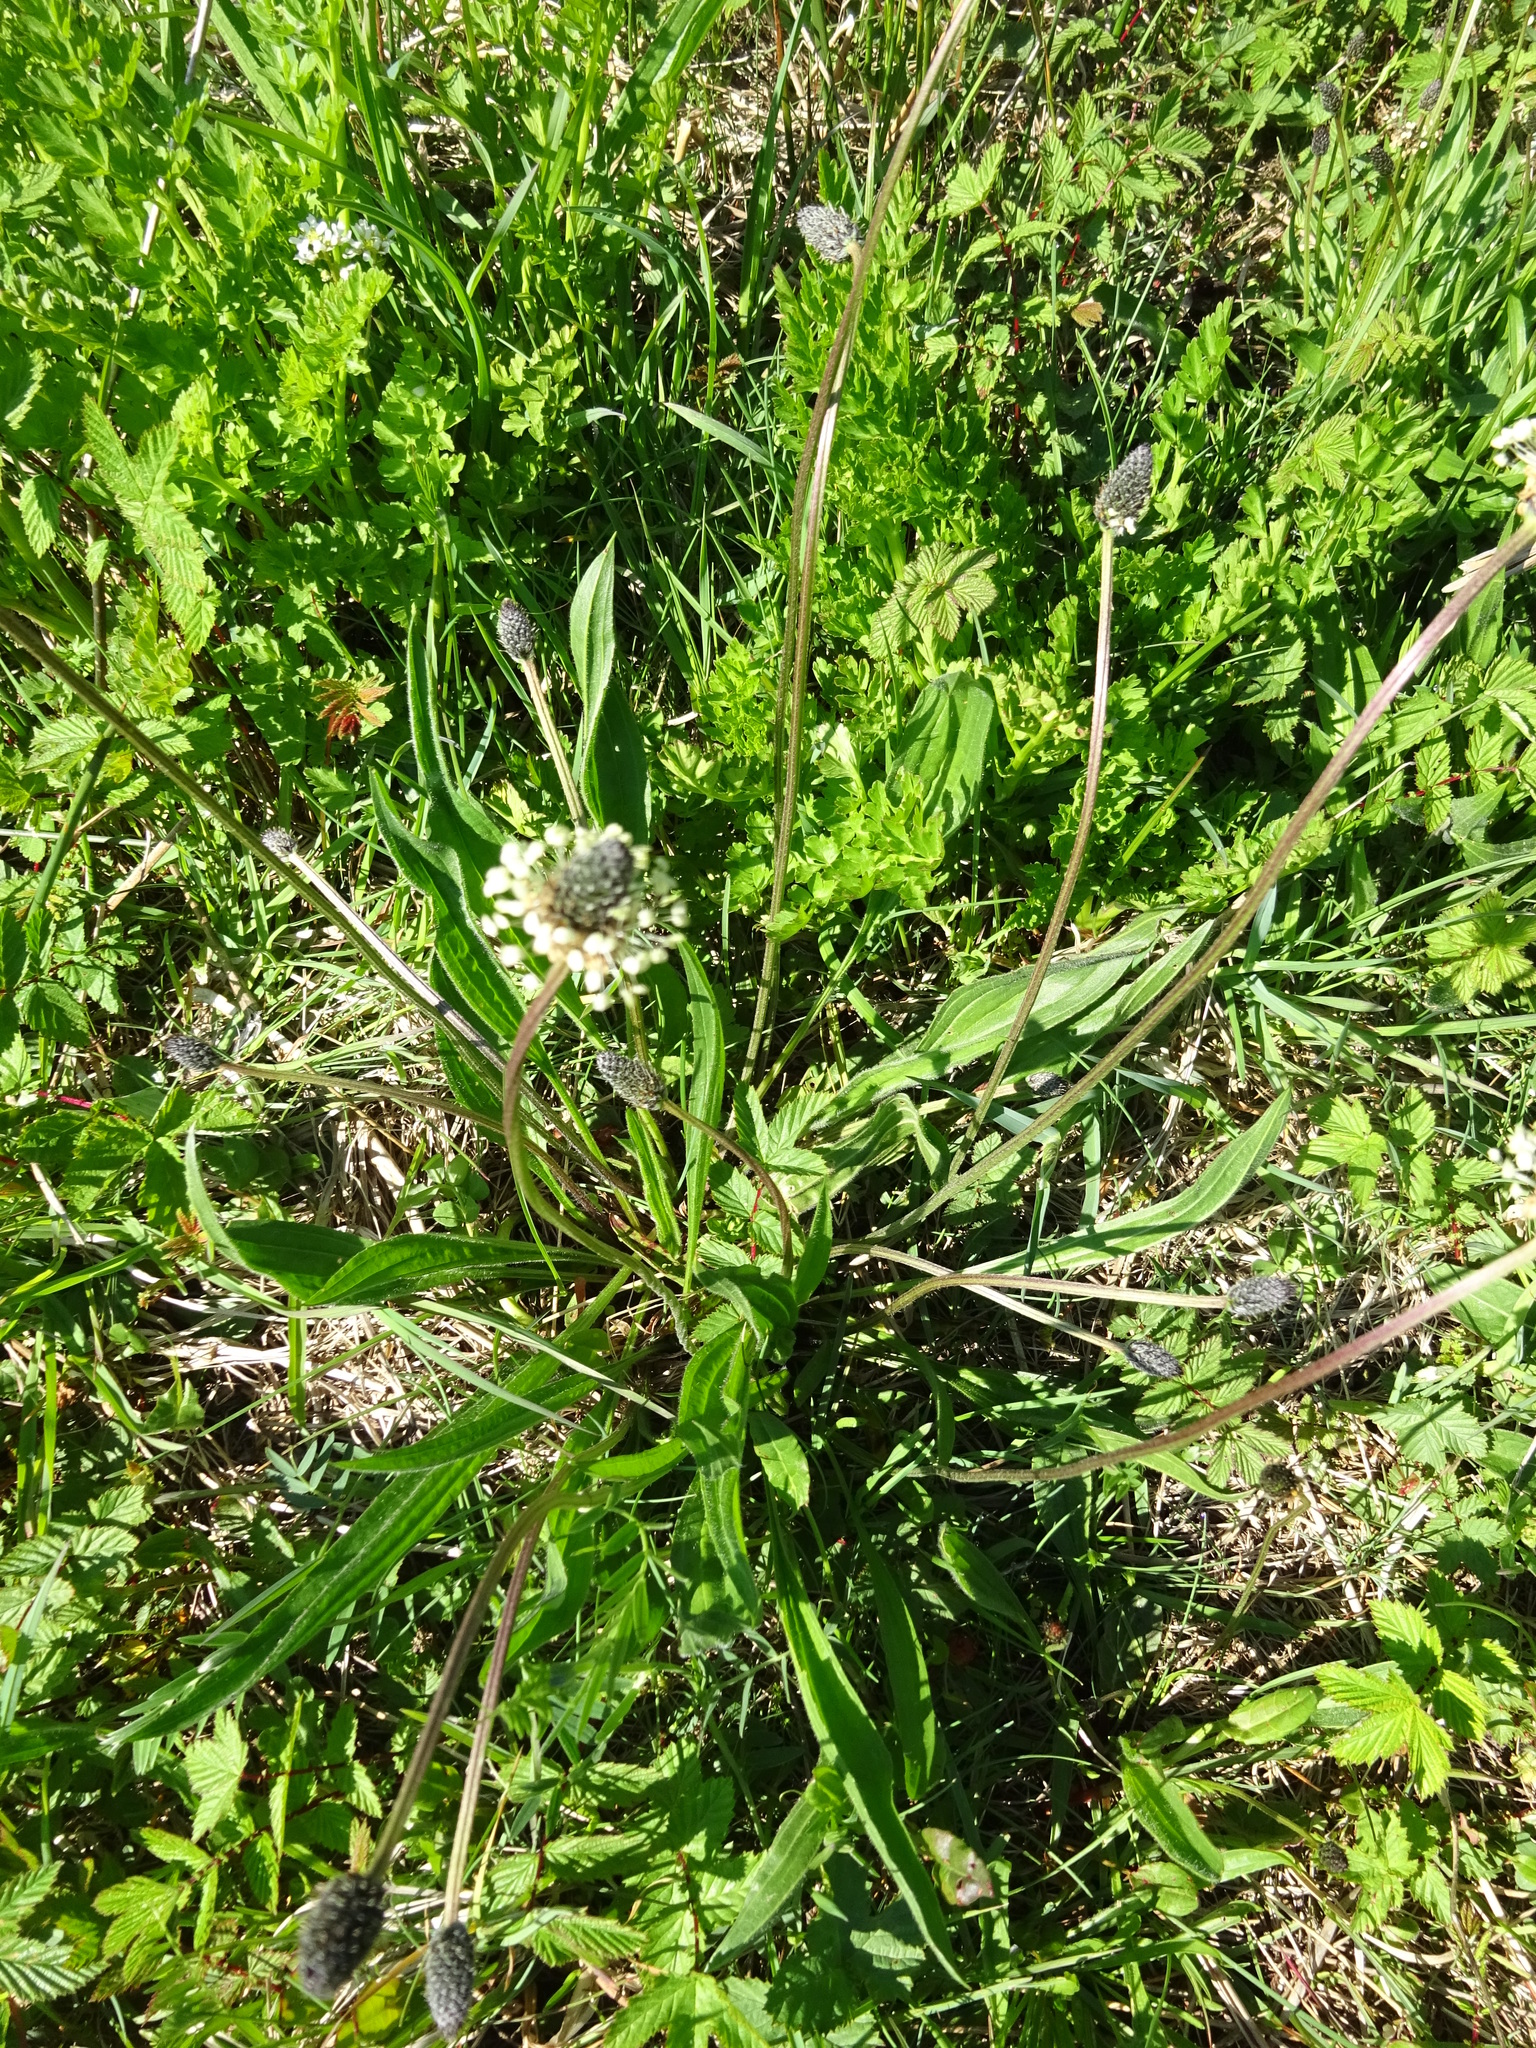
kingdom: Plantae
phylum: Tracheophyta
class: Magnoliopsida
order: Lamiales
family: Plantaginaceae
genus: Plantago
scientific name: Plantago lanceolata
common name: Ribwort plantain
